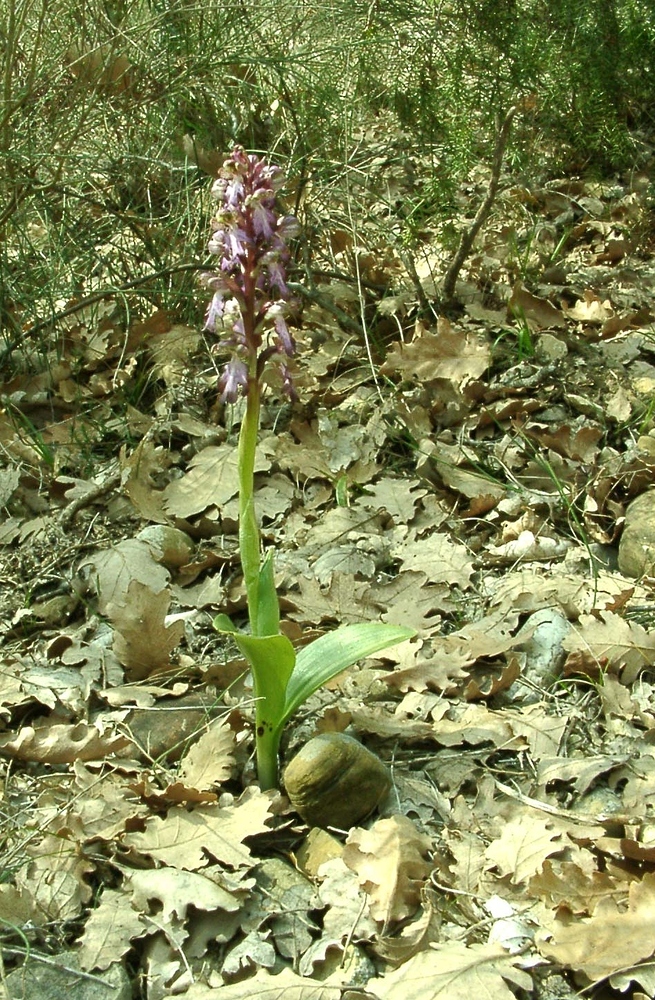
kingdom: Plantae
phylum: Tracheophyta
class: Liliopsida
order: Asparagales
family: Orchidaceae
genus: Himantoglossum
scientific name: Himantoglossum robertianum
